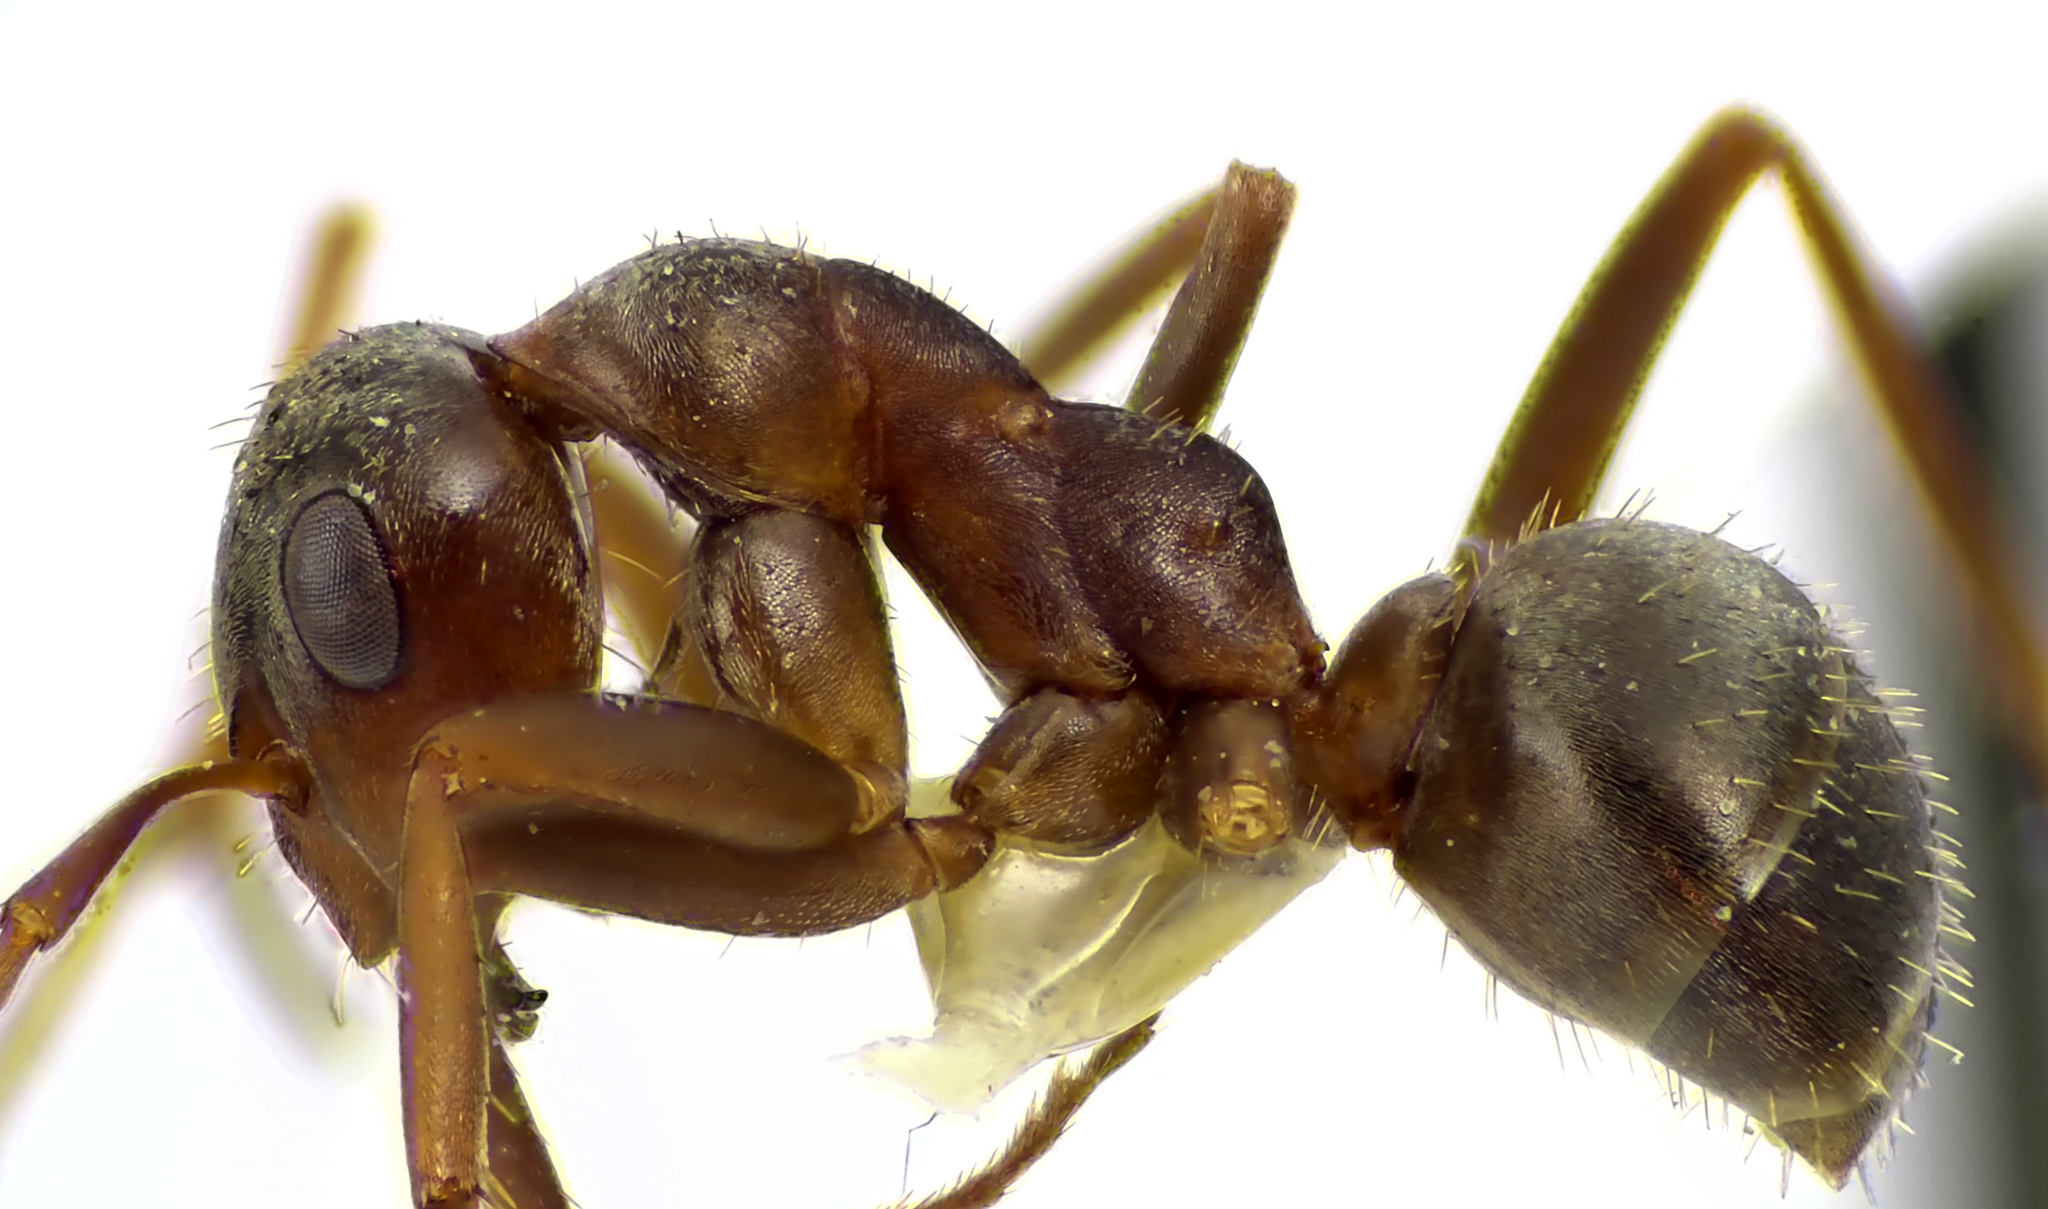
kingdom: Animalia
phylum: Arthropoda
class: Insecta
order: Hymenoptera
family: Formicidae
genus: Formica
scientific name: Formica montana
